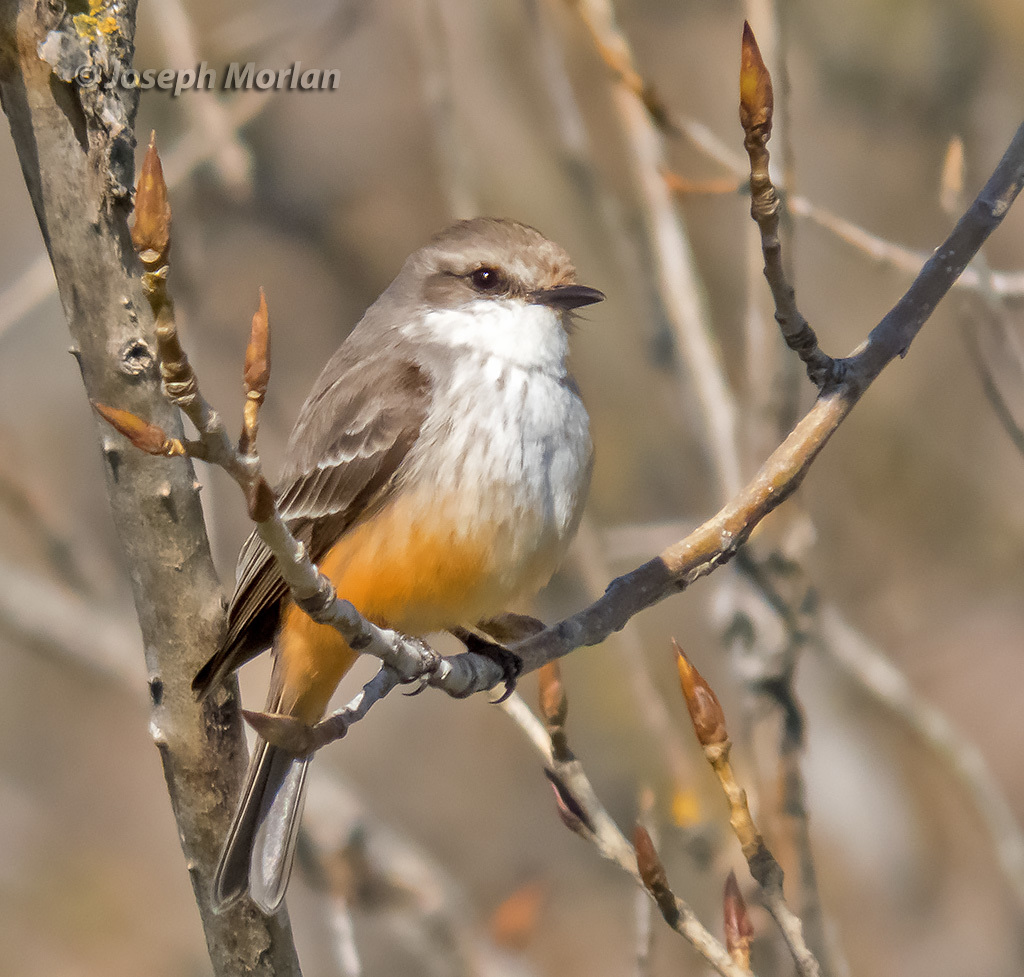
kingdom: Animalia
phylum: Chordata
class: Aves
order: Passeriformes
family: Tyrannidae
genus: Pyrocephalus
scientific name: Pyrocephalus rubinus
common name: Vermilion flycatcher
